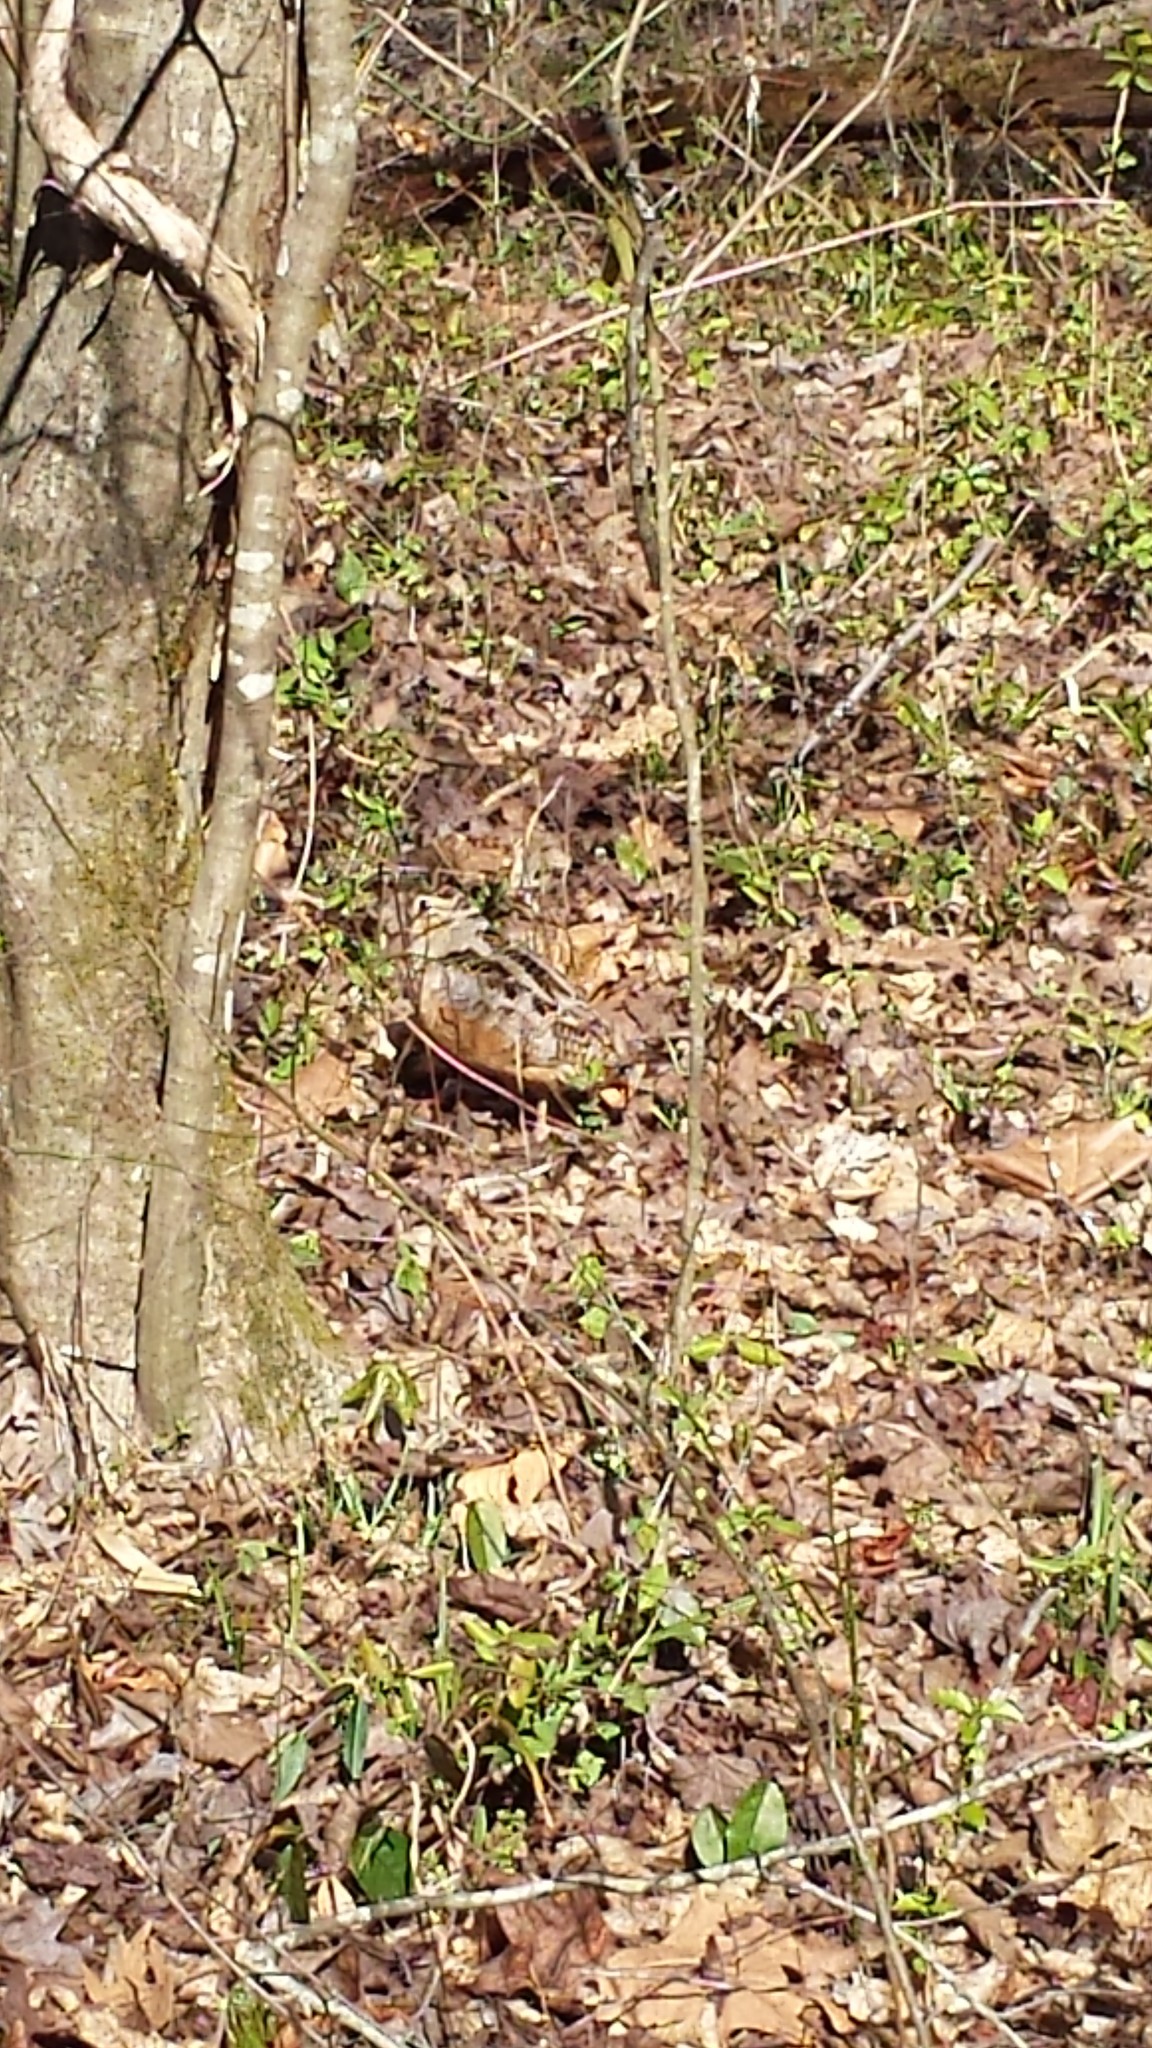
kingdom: Animalia
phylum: Chordata
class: Aves
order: Charadriiformes
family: Scolopacidae
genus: Scolopax
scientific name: Scolopax minor
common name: American woodcock
